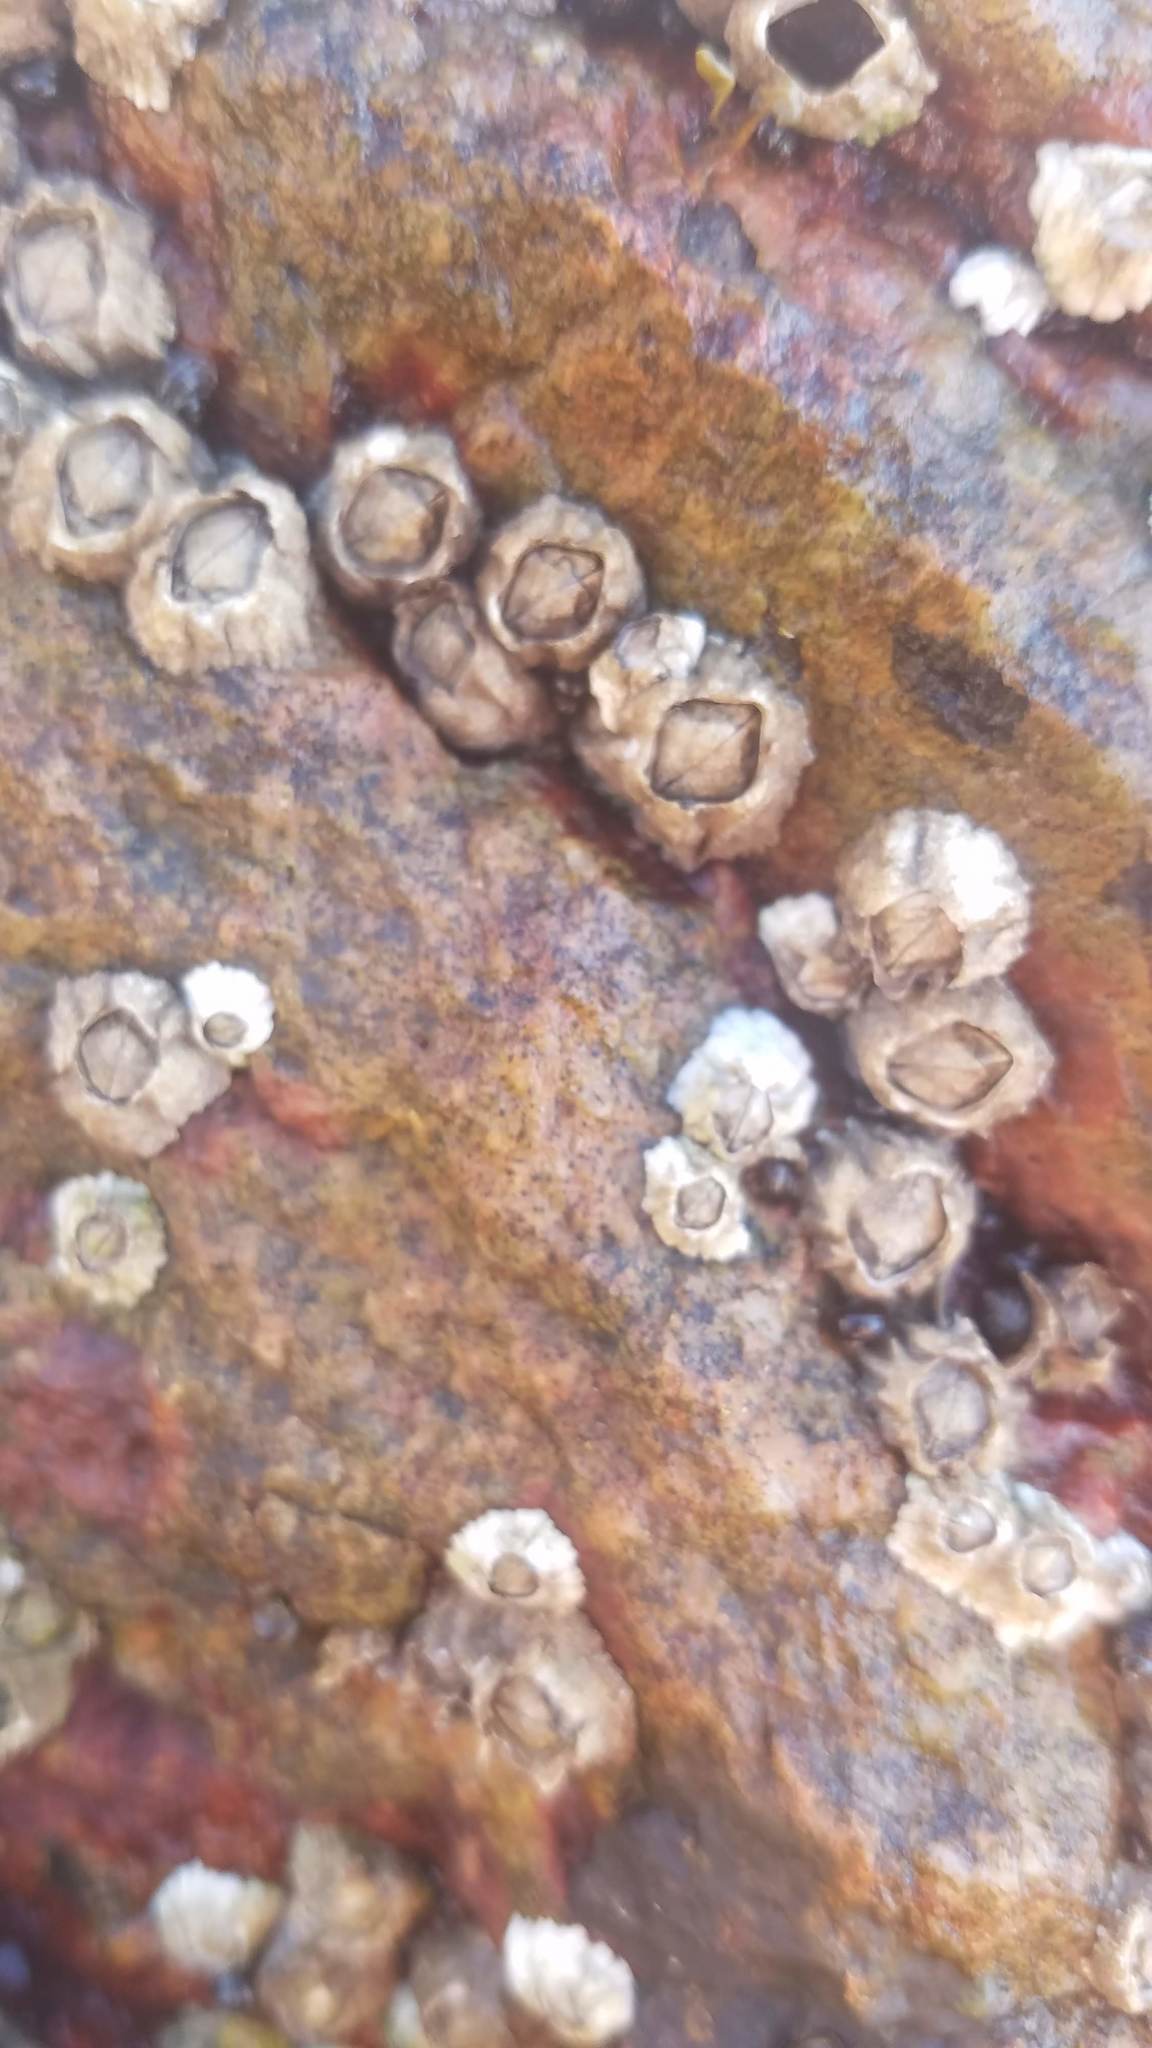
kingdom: Animalia
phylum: Arthropoda
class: Maxillopoda
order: Sessilia
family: Archaeobalanidae
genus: Semibalanus
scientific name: Semibalanus balanoides
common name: Acorn barnacle
